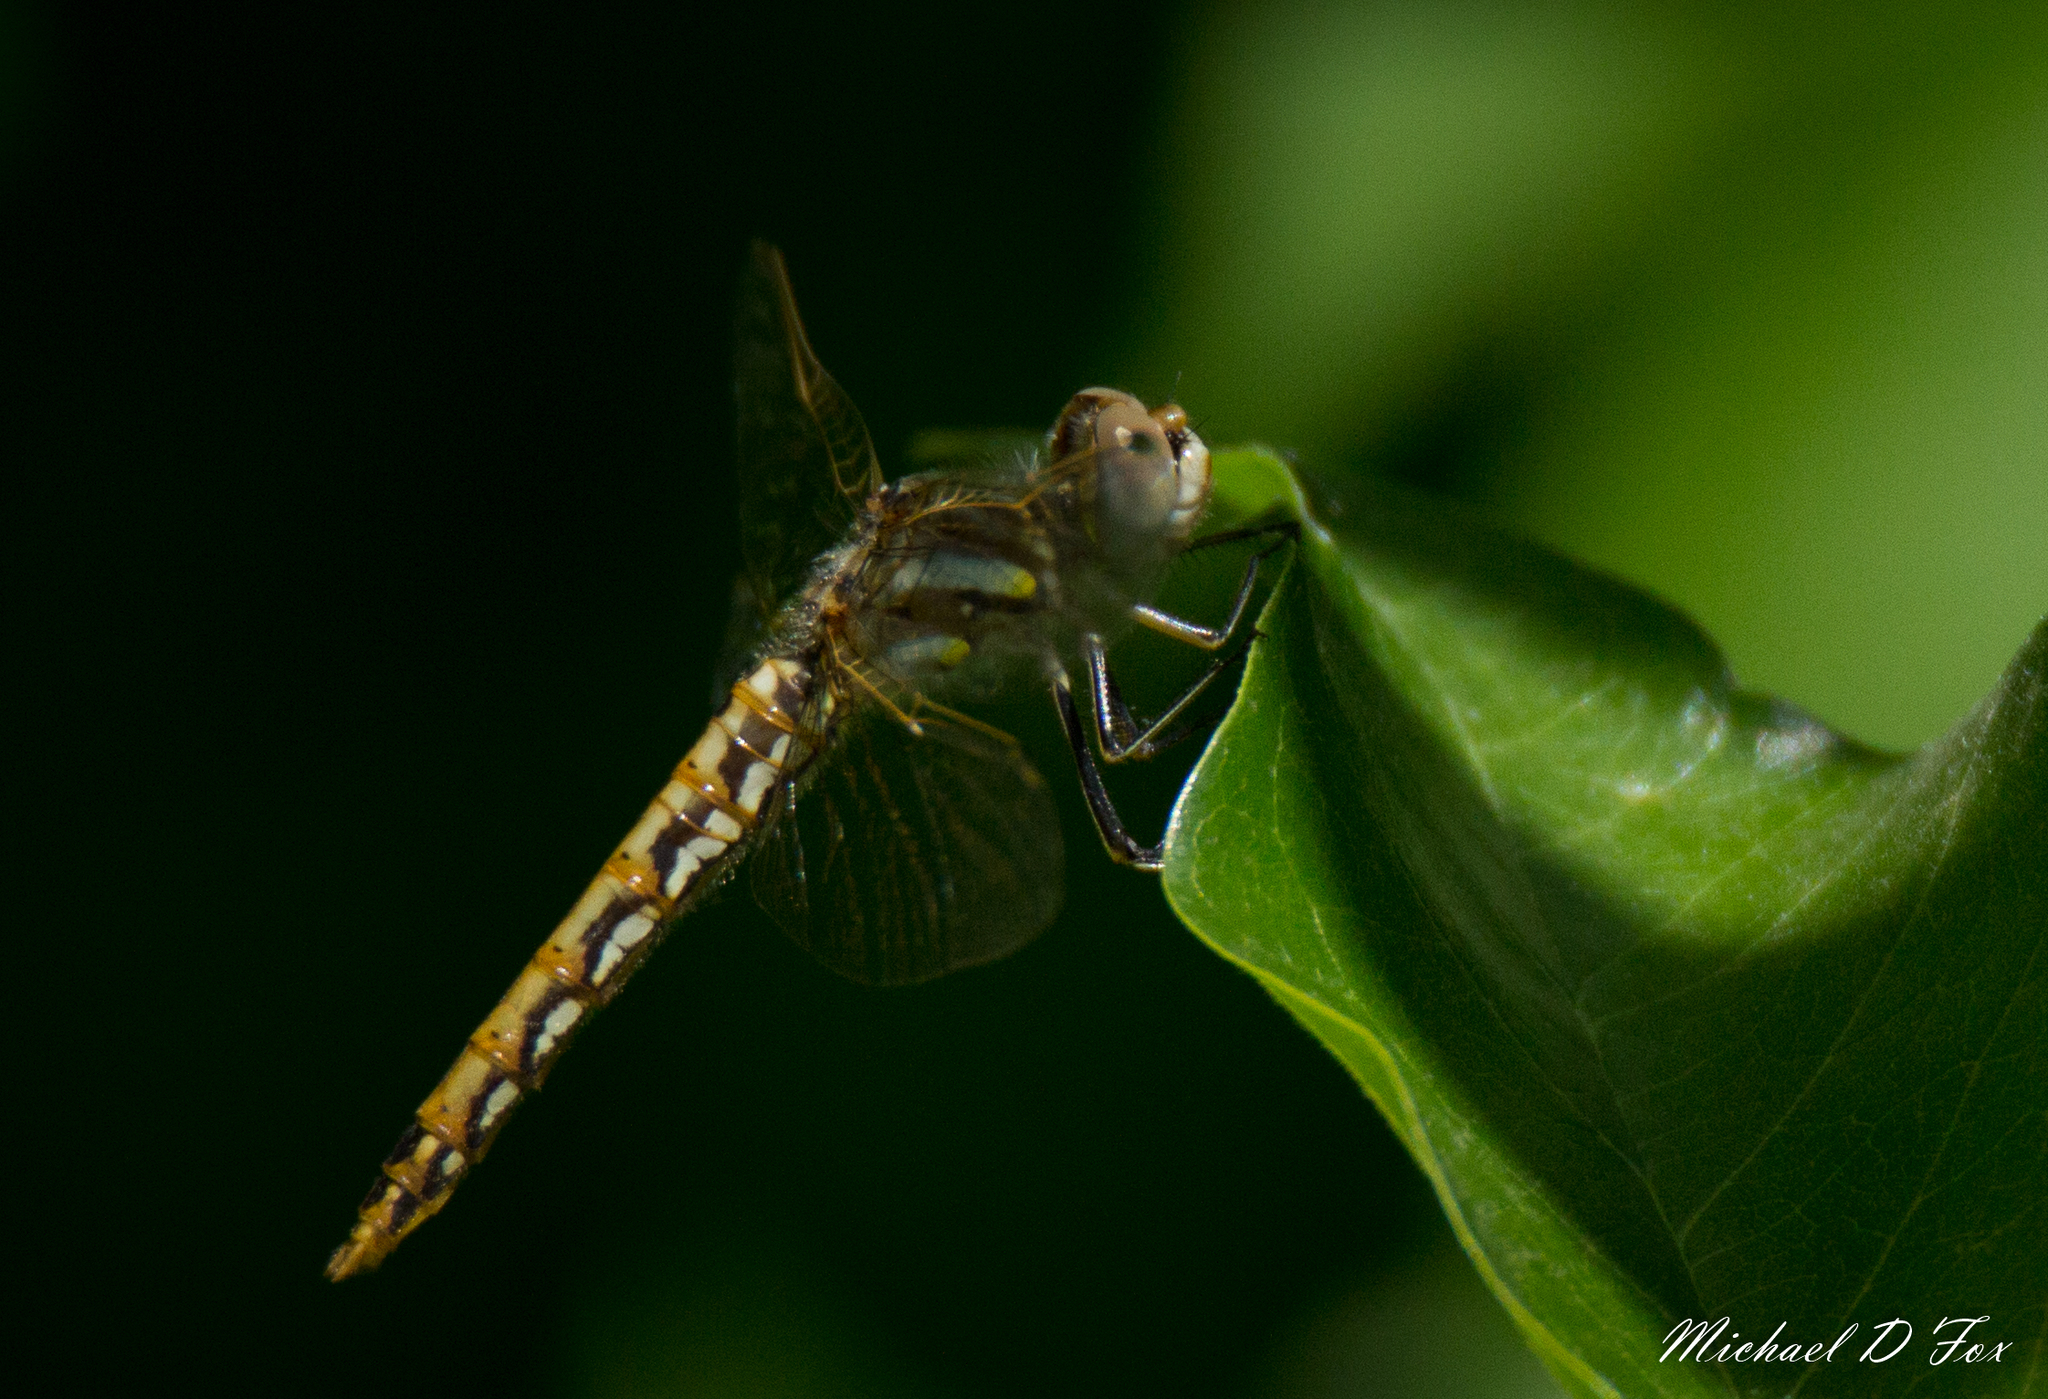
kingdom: Animalia
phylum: Arthropoda
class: Insecta
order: Odonata
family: Libellulidae
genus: Sympetrum
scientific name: Sympetrum corruptum
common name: Variegated meadowhawk
